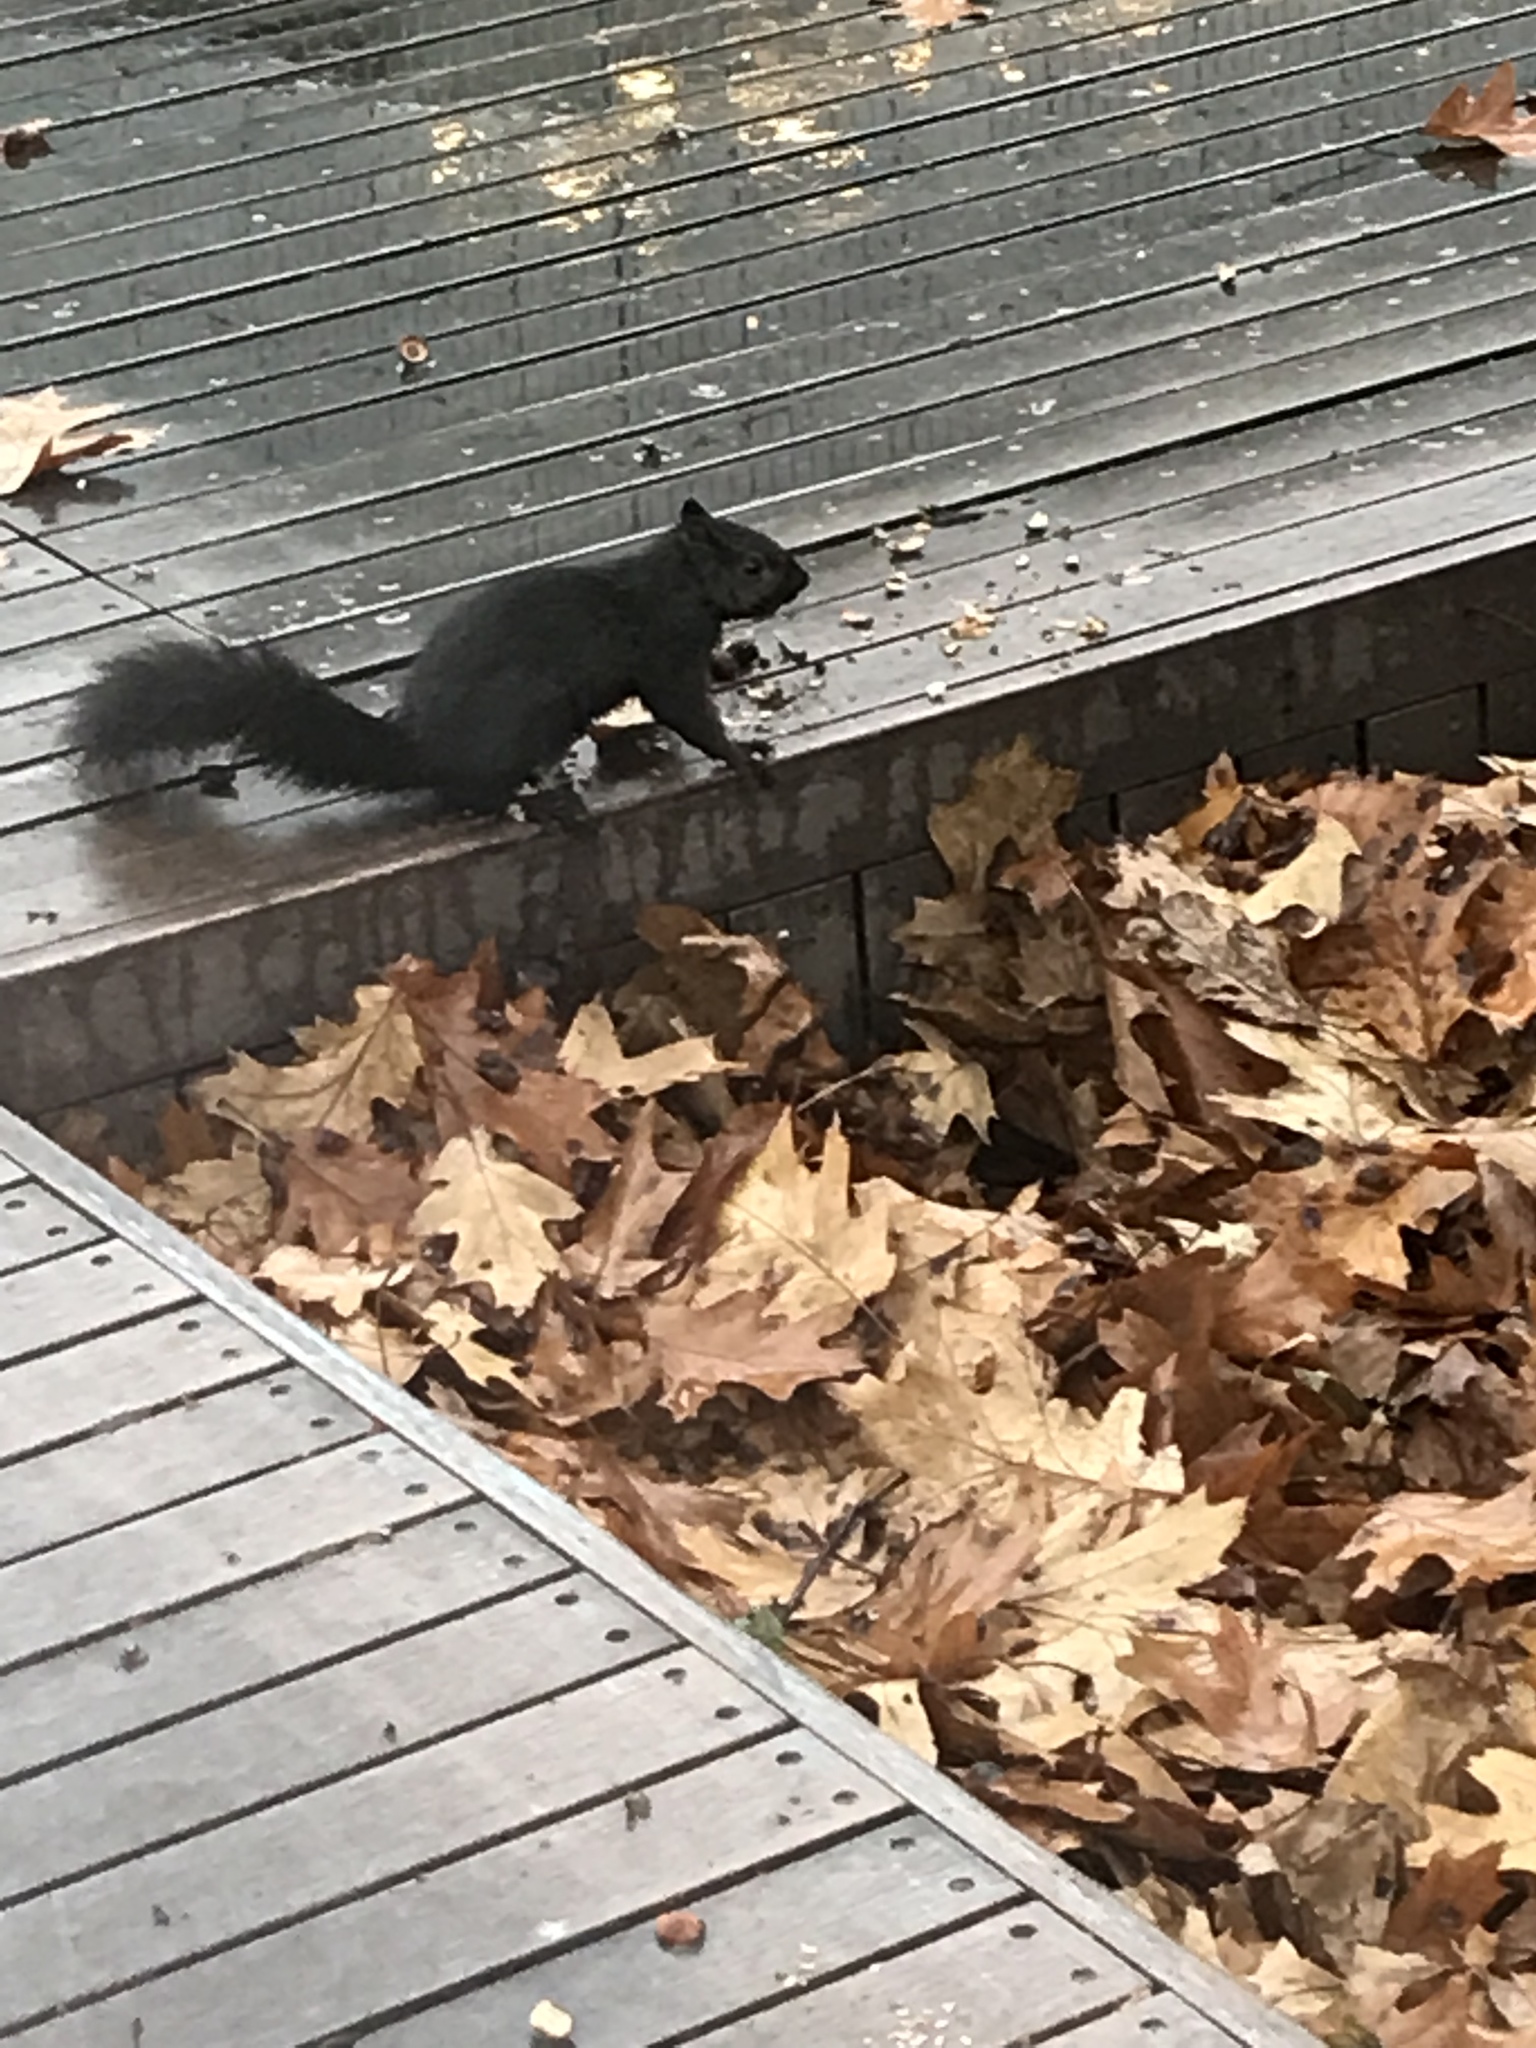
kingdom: Animalia
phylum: Chordata
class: Mammalia
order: Rodentia
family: Sciuridae
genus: Sciurus
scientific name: Sciurus carolinensis
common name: Eastern gray squirrel
